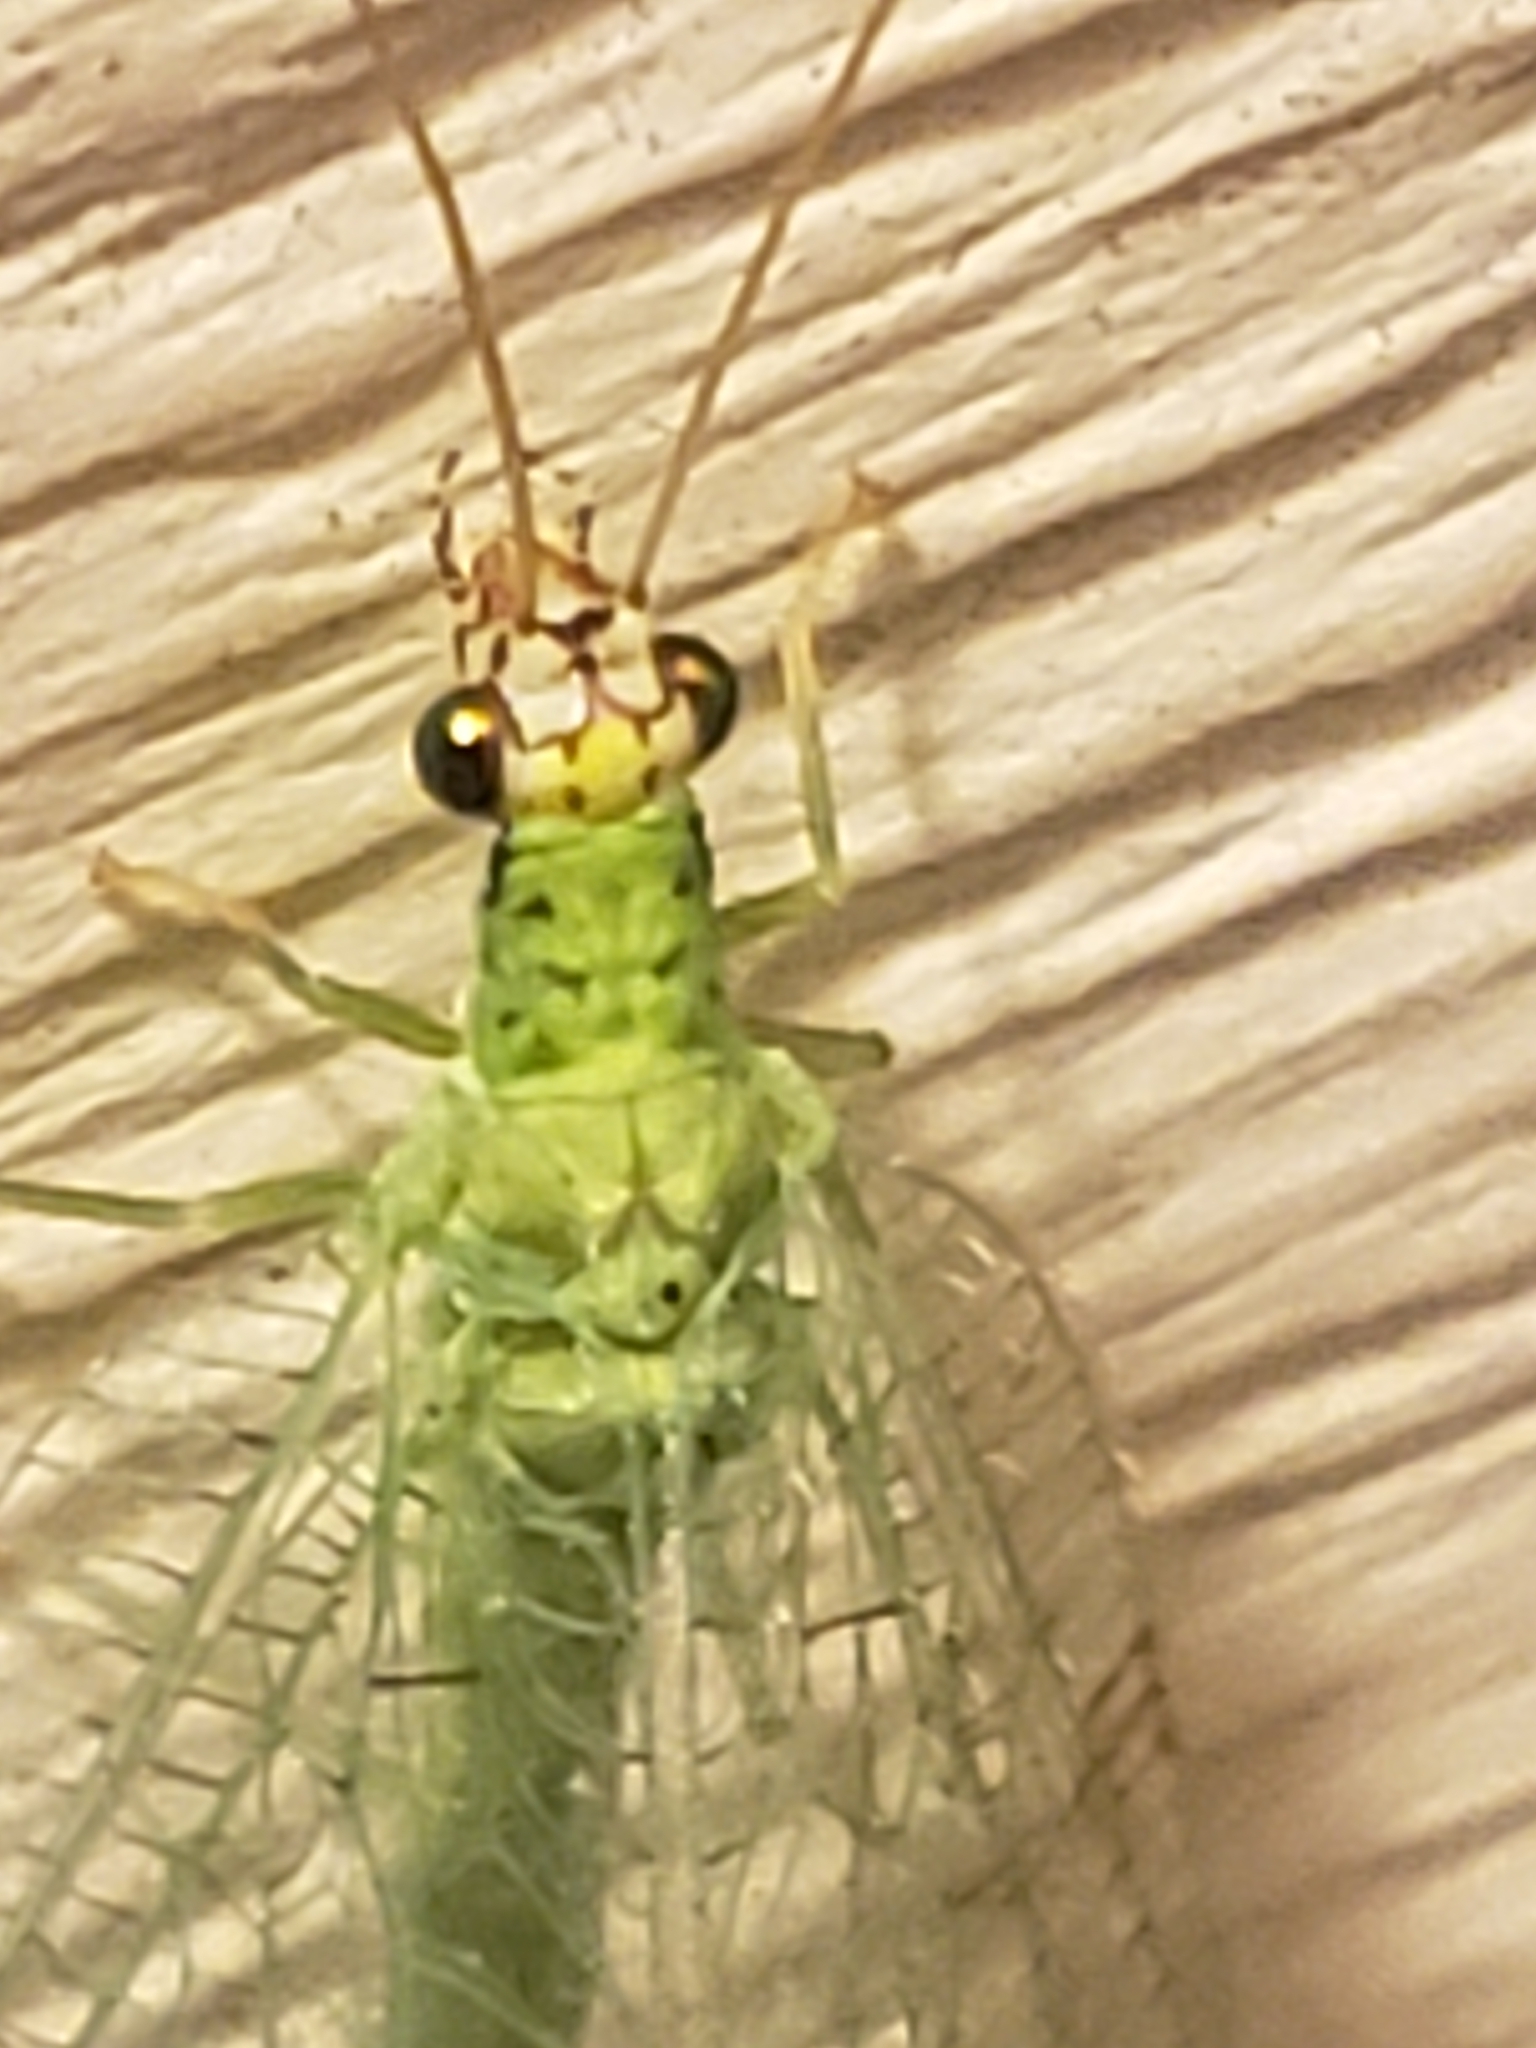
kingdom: Animalia
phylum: Arthropoda
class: Insecta
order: Neuroptera
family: Chrysopidae
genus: Chrysopa
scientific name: Chrysopa oculata
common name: Golden-eyed lacewing
